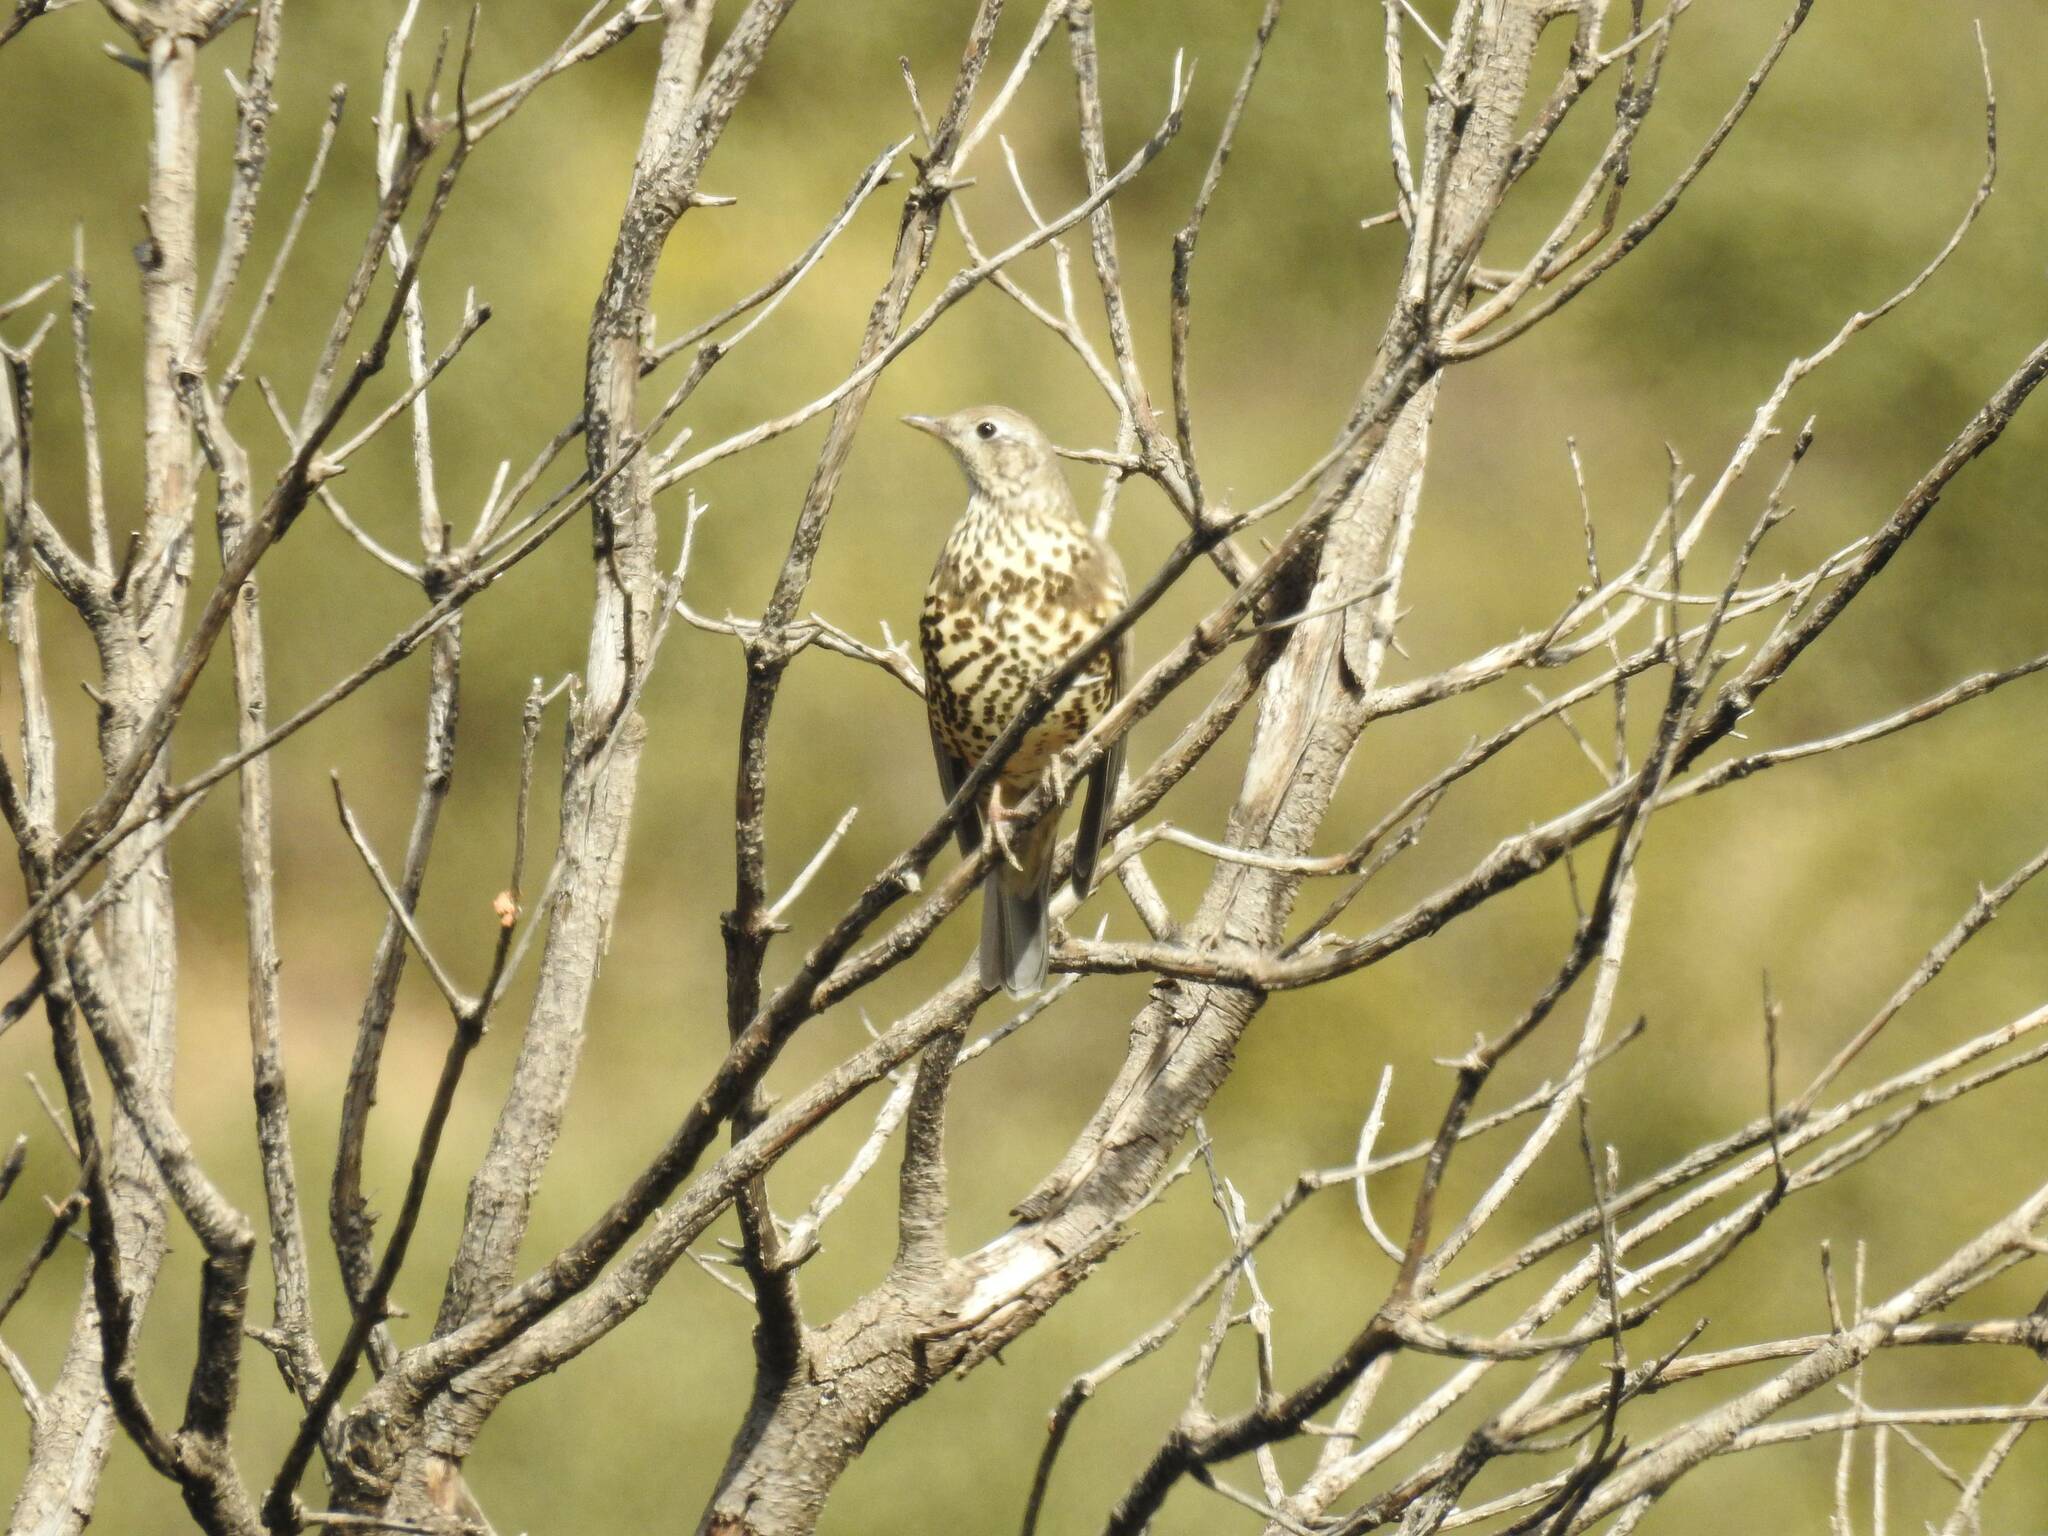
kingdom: Animalia
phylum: Chordata
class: Aves
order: Passeriformes
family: Turdidae
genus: Turdus
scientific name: Turdus viscivorus
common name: Mistle thrush
